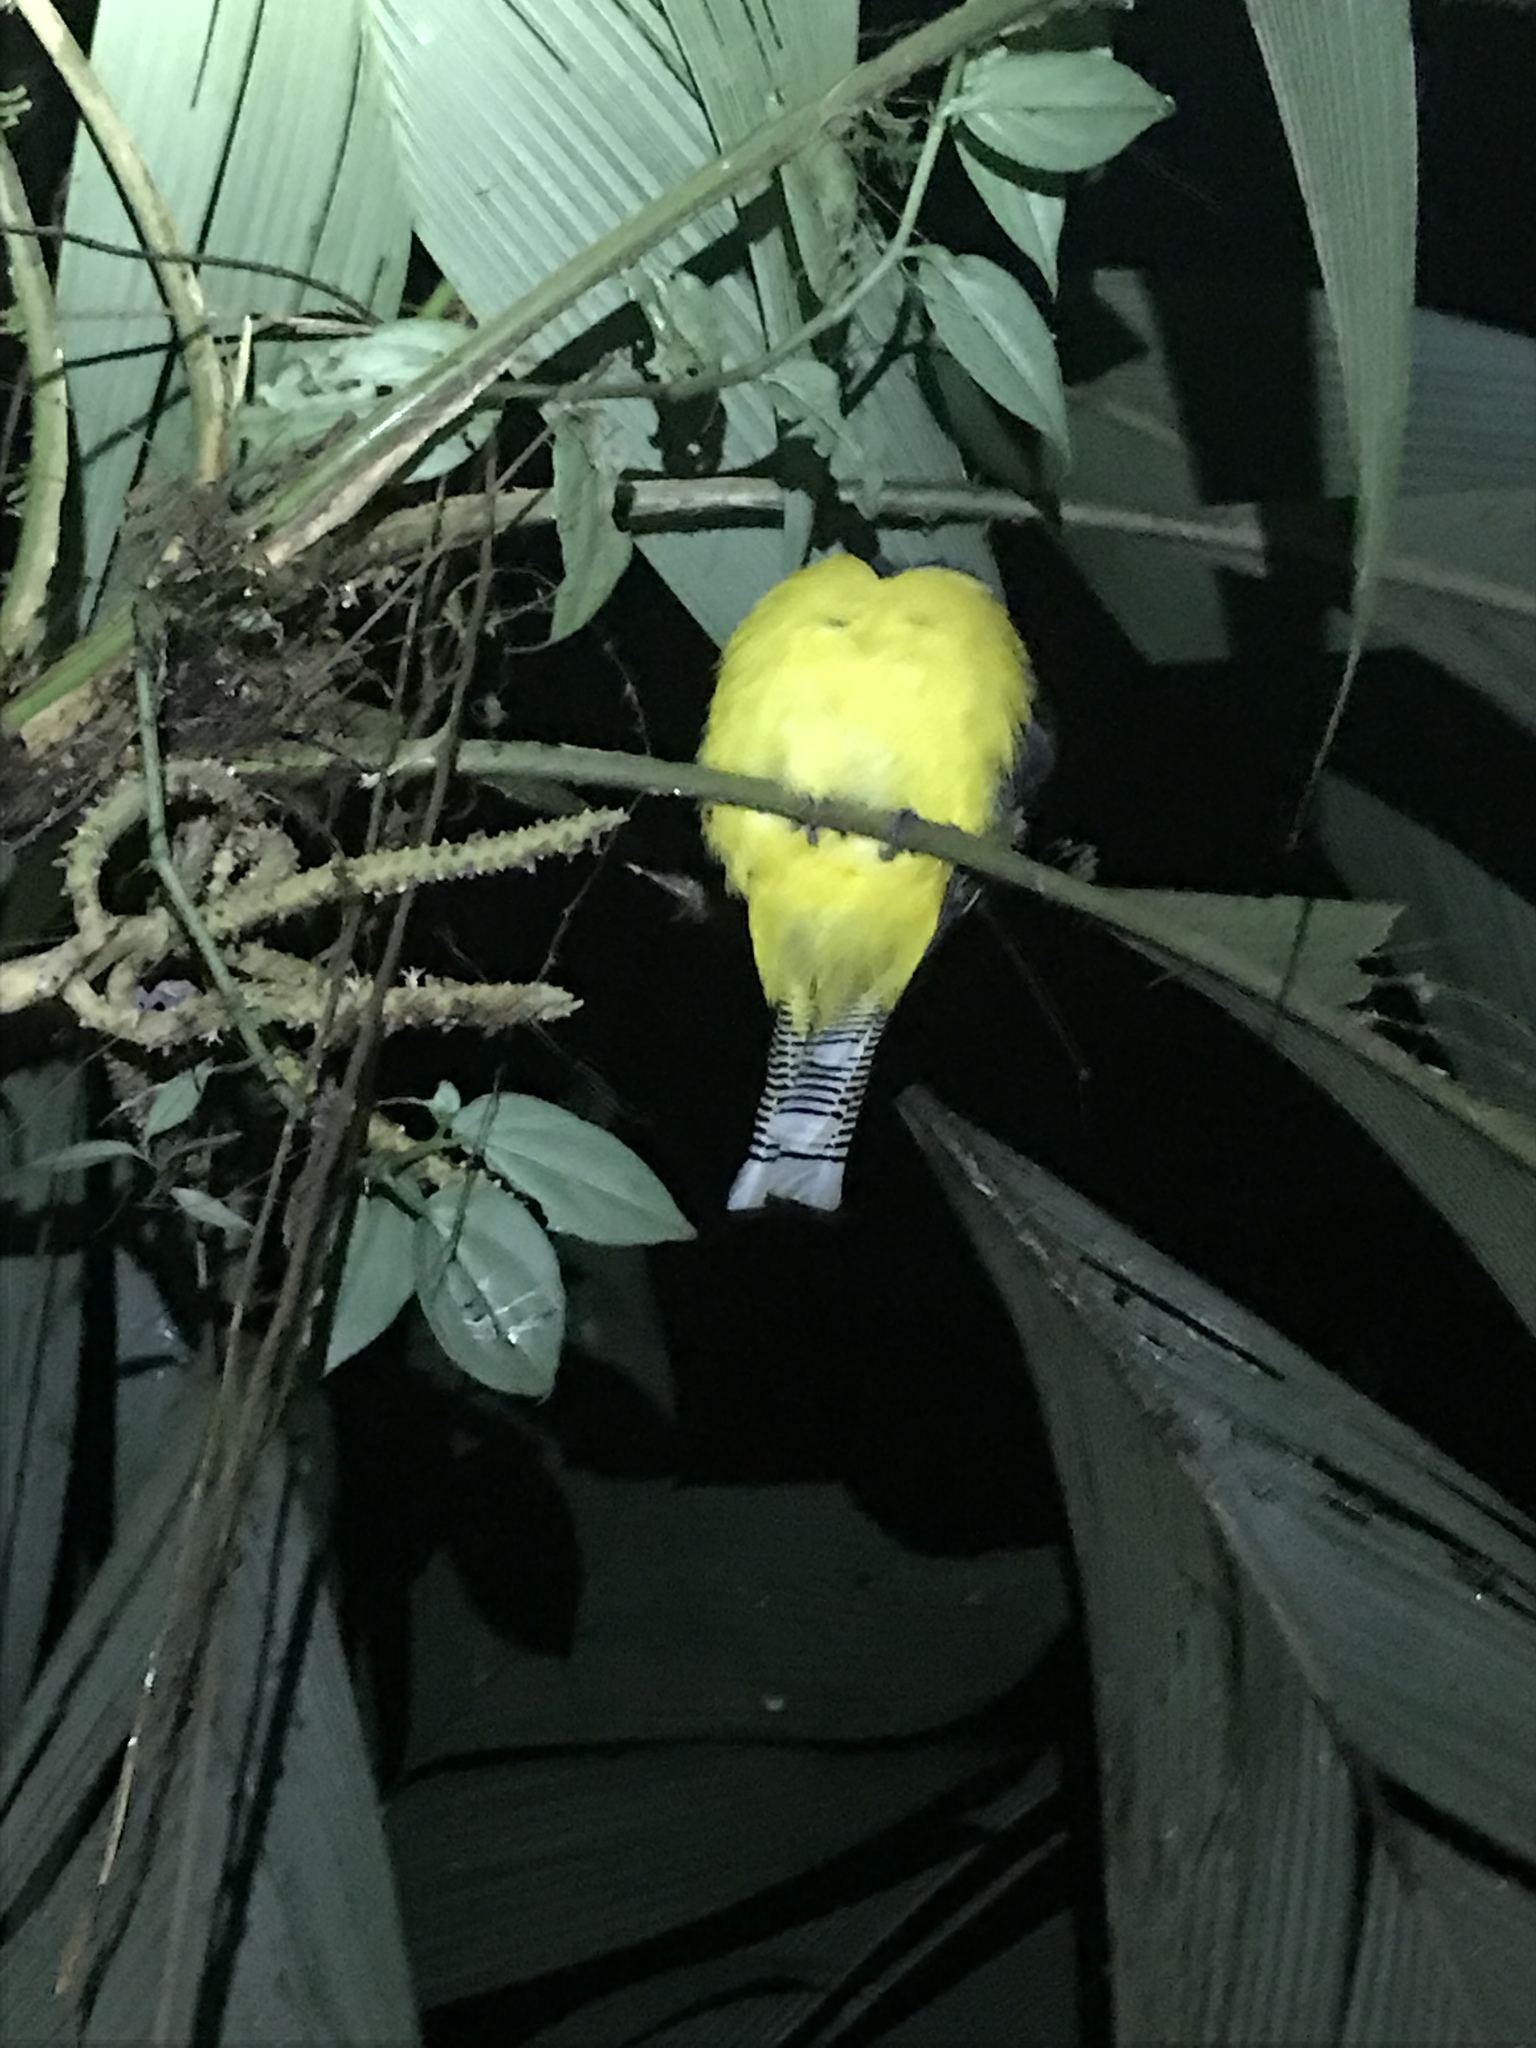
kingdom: Animalia
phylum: Chordata
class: Aves
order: Trogoniformes
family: Trogonidae
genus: Trogon
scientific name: Trogon
